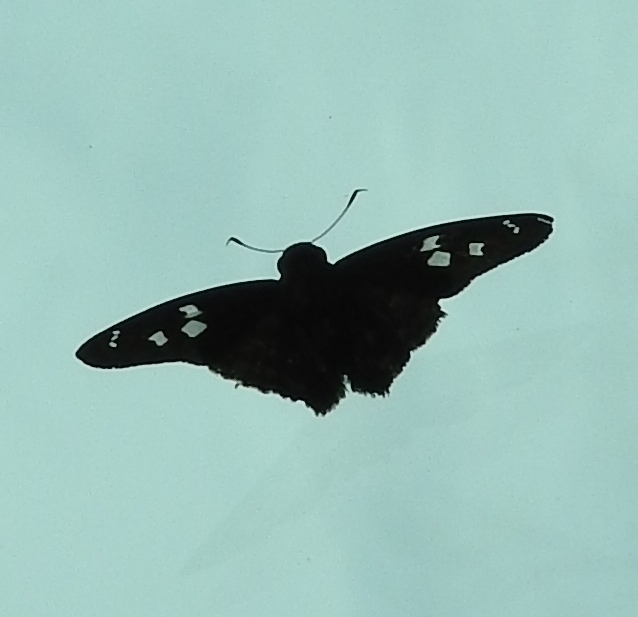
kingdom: Animalia
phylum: Arthropoda
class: Insecta
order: Lepidoptera
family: Hesperiidae
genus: Polygonus
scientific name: Polygonus
